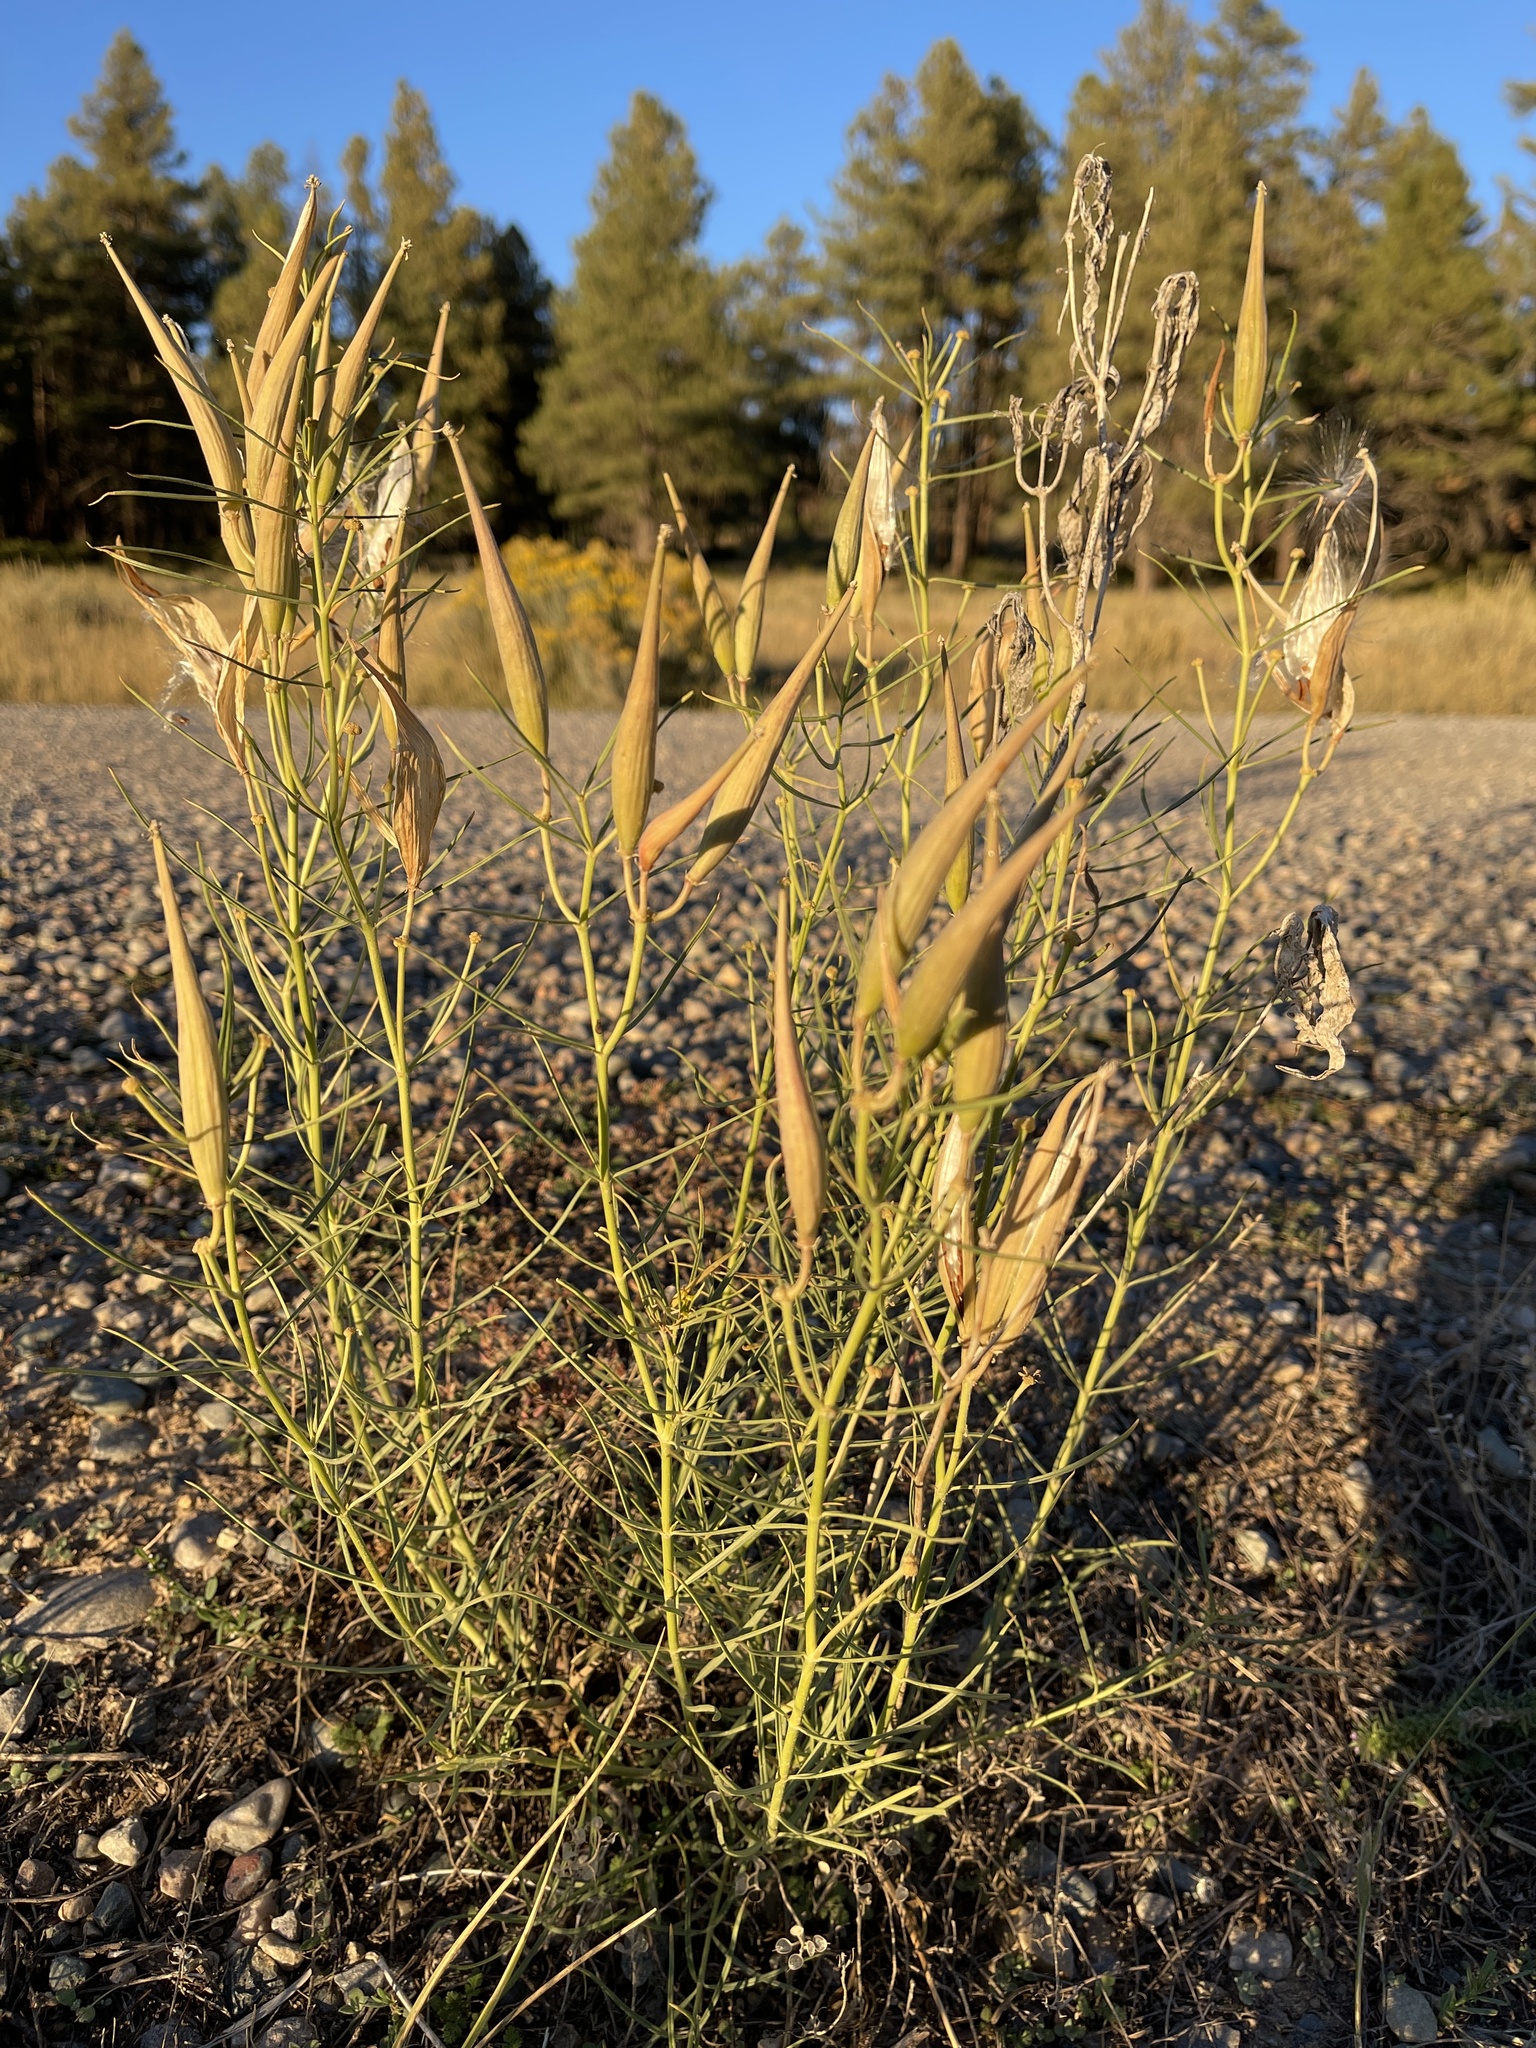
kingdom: Plantae
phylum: Tracheophyta
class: Magnoliopsida
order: Gentianales
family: Apocynaceae
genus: Asclepias
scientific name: Asclepias subverticillata
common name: Horsetail milkweed
